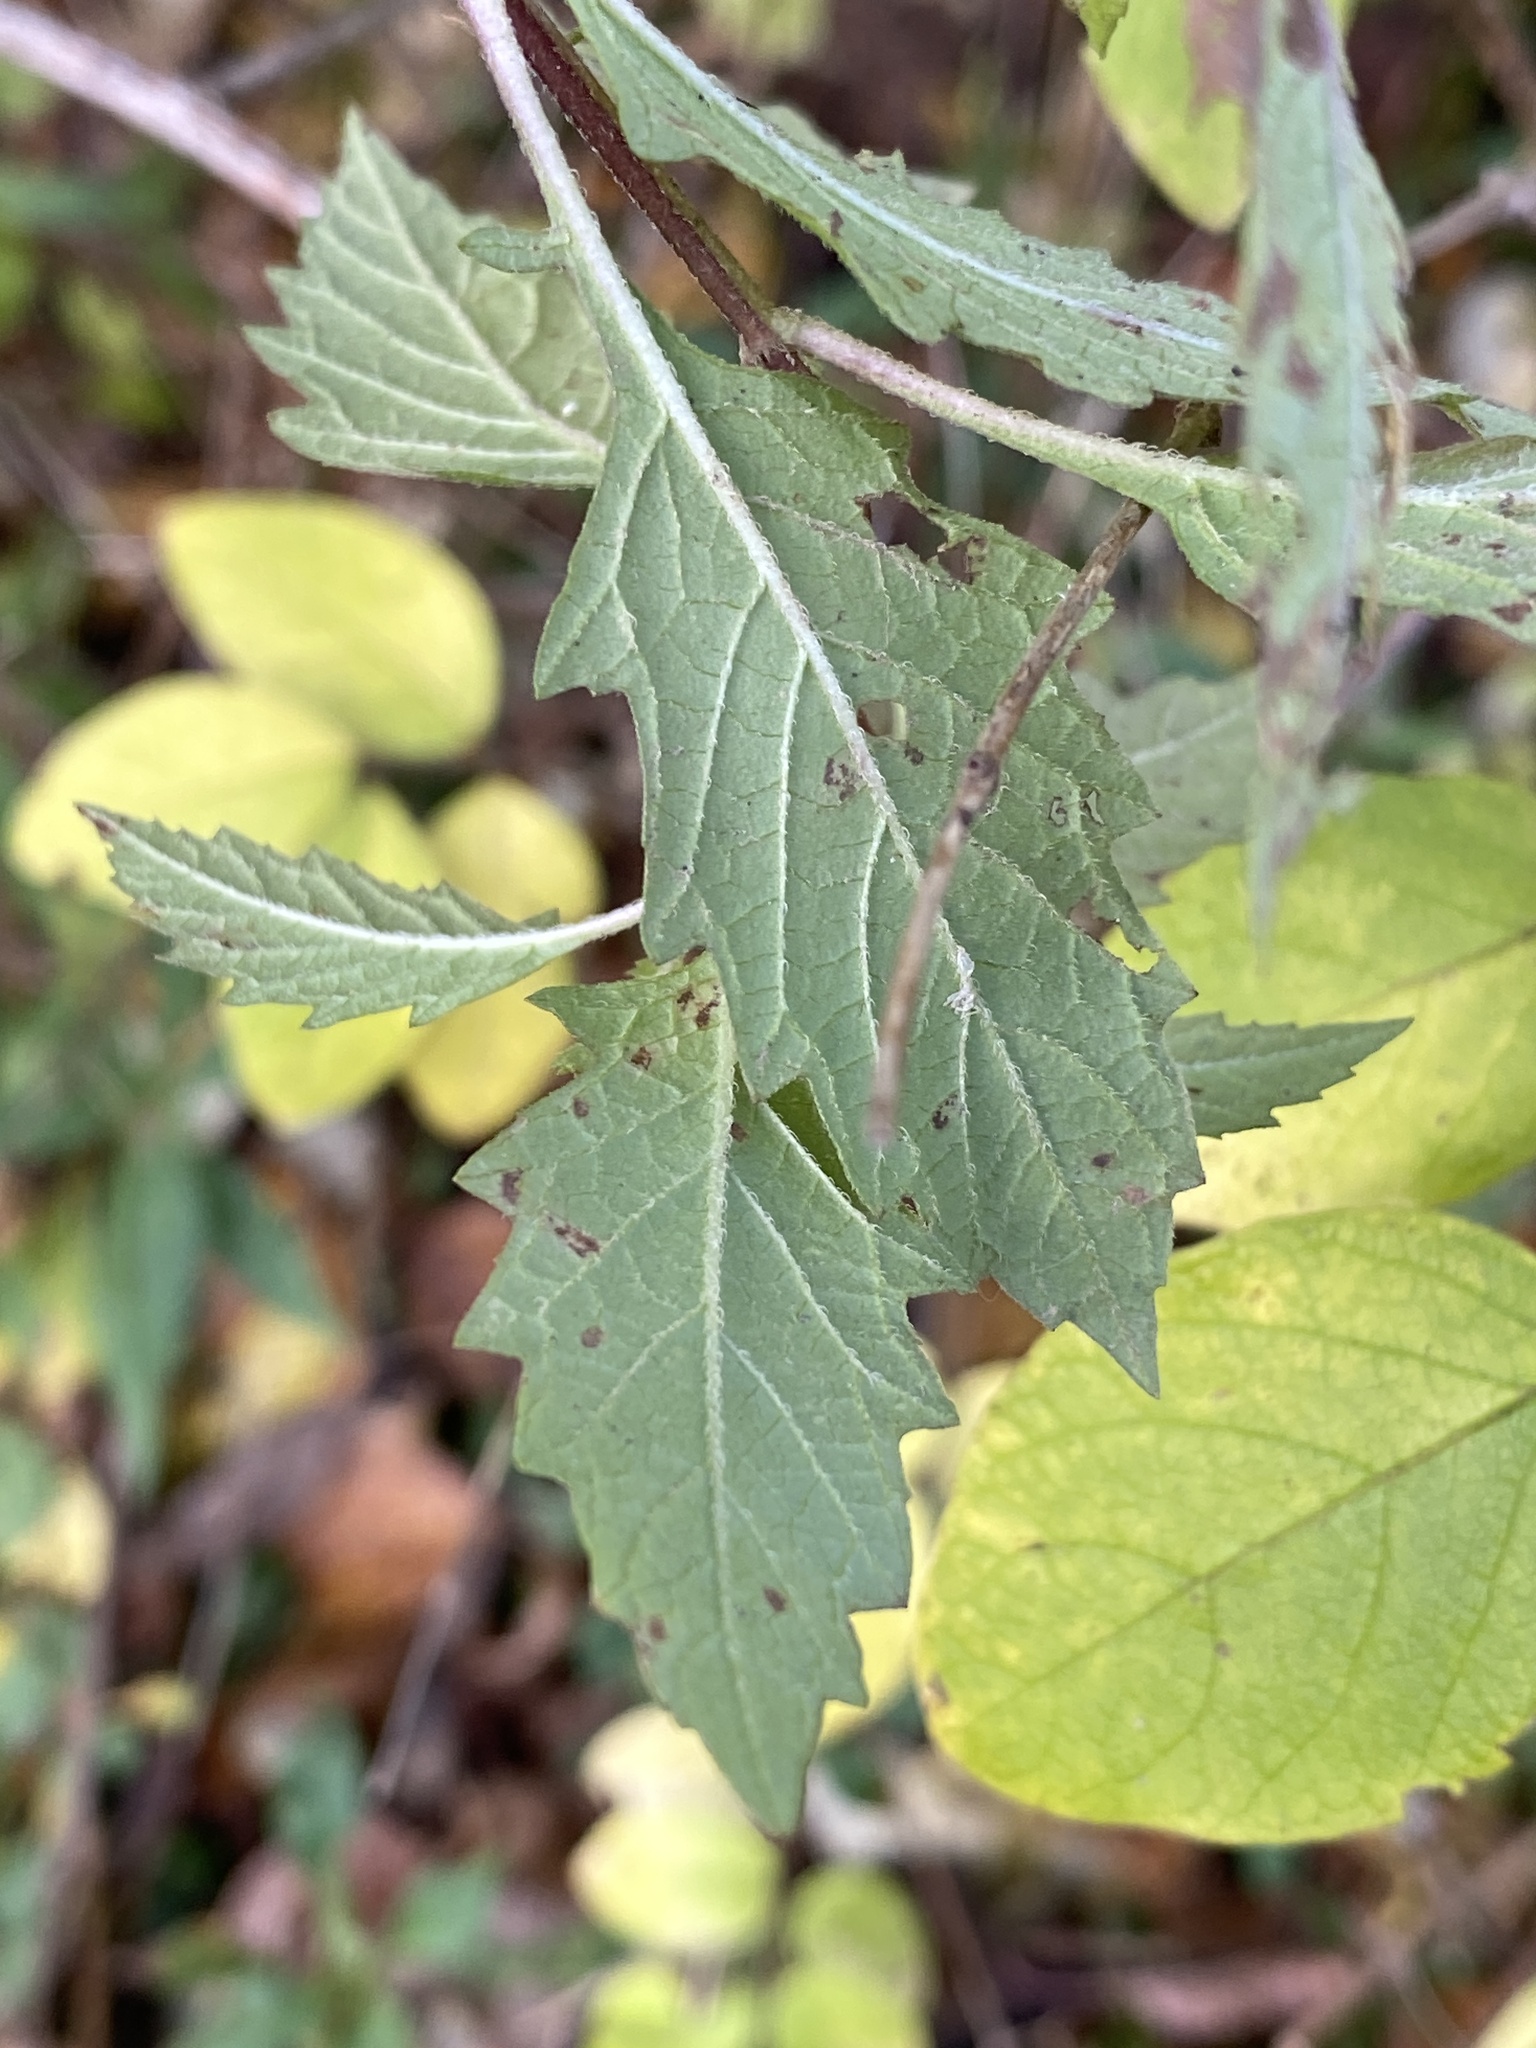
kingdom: Plantae
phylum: Tracheophyta
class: Magnoliopsida
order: Lamiales
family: Lamiaceae
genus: Lycopus
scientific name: Lycopus europaeus
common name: European bugleweed
